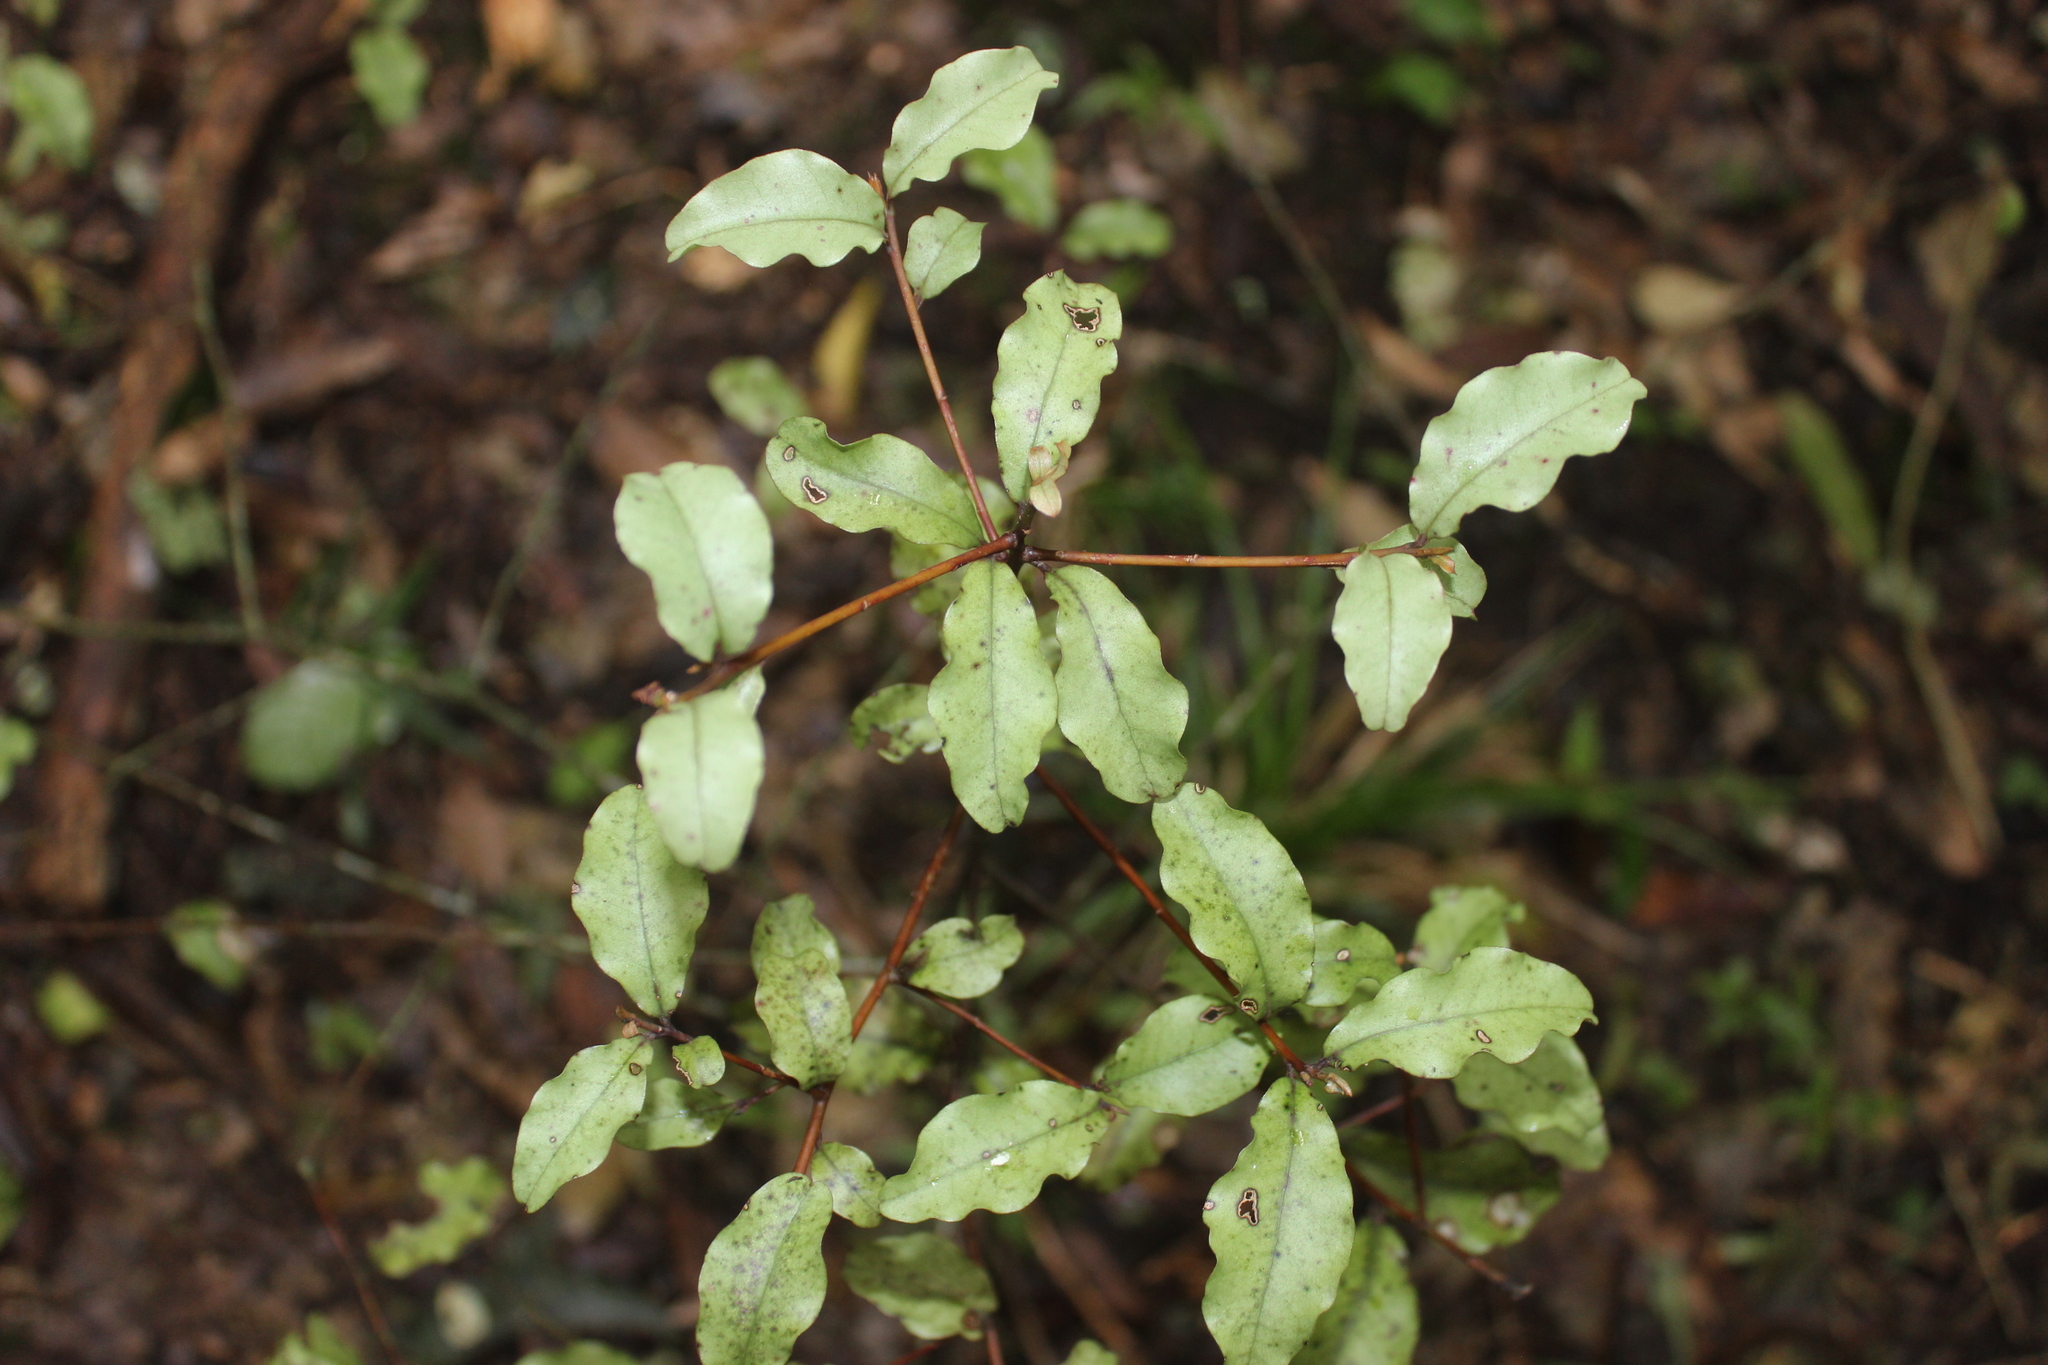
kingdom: Plantae
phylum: Tracheophyta
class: Magnoliopsida
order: Ericales
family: Primulaceae
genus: Myrsine
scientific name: Myrsine australis
